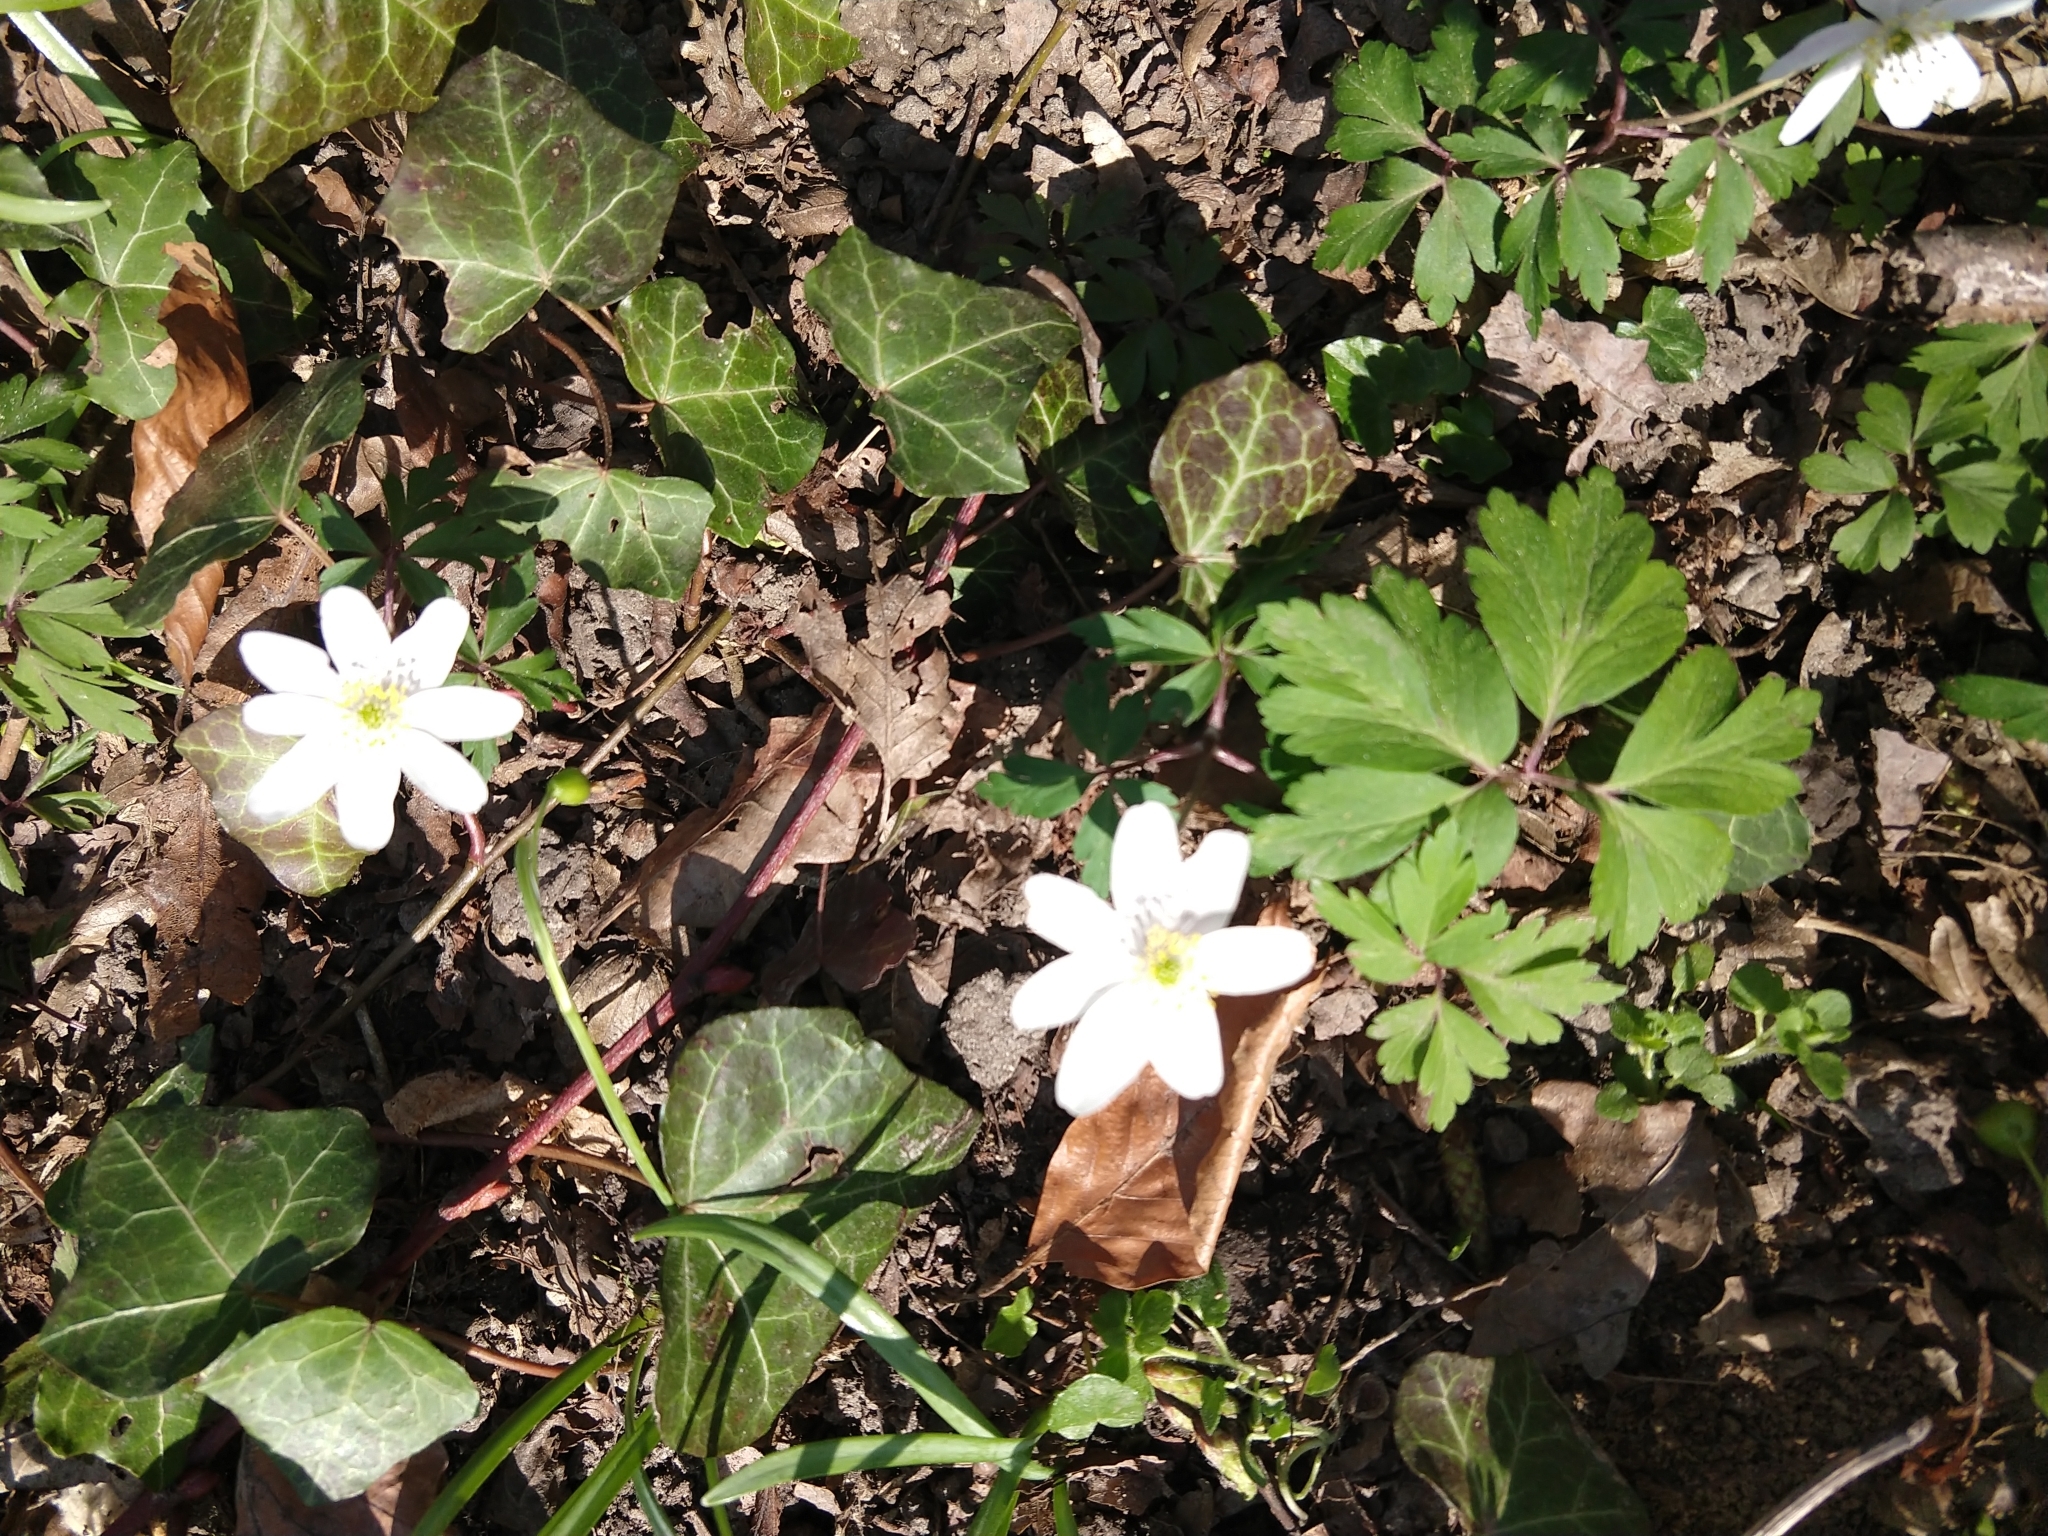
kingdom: Plantae
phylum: Tracheophyta
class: Magnoliopsida
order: Ranunculales
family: Ranunculaceae
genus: Anemone
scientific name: Anemone nemorosa
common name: Wood anemone
